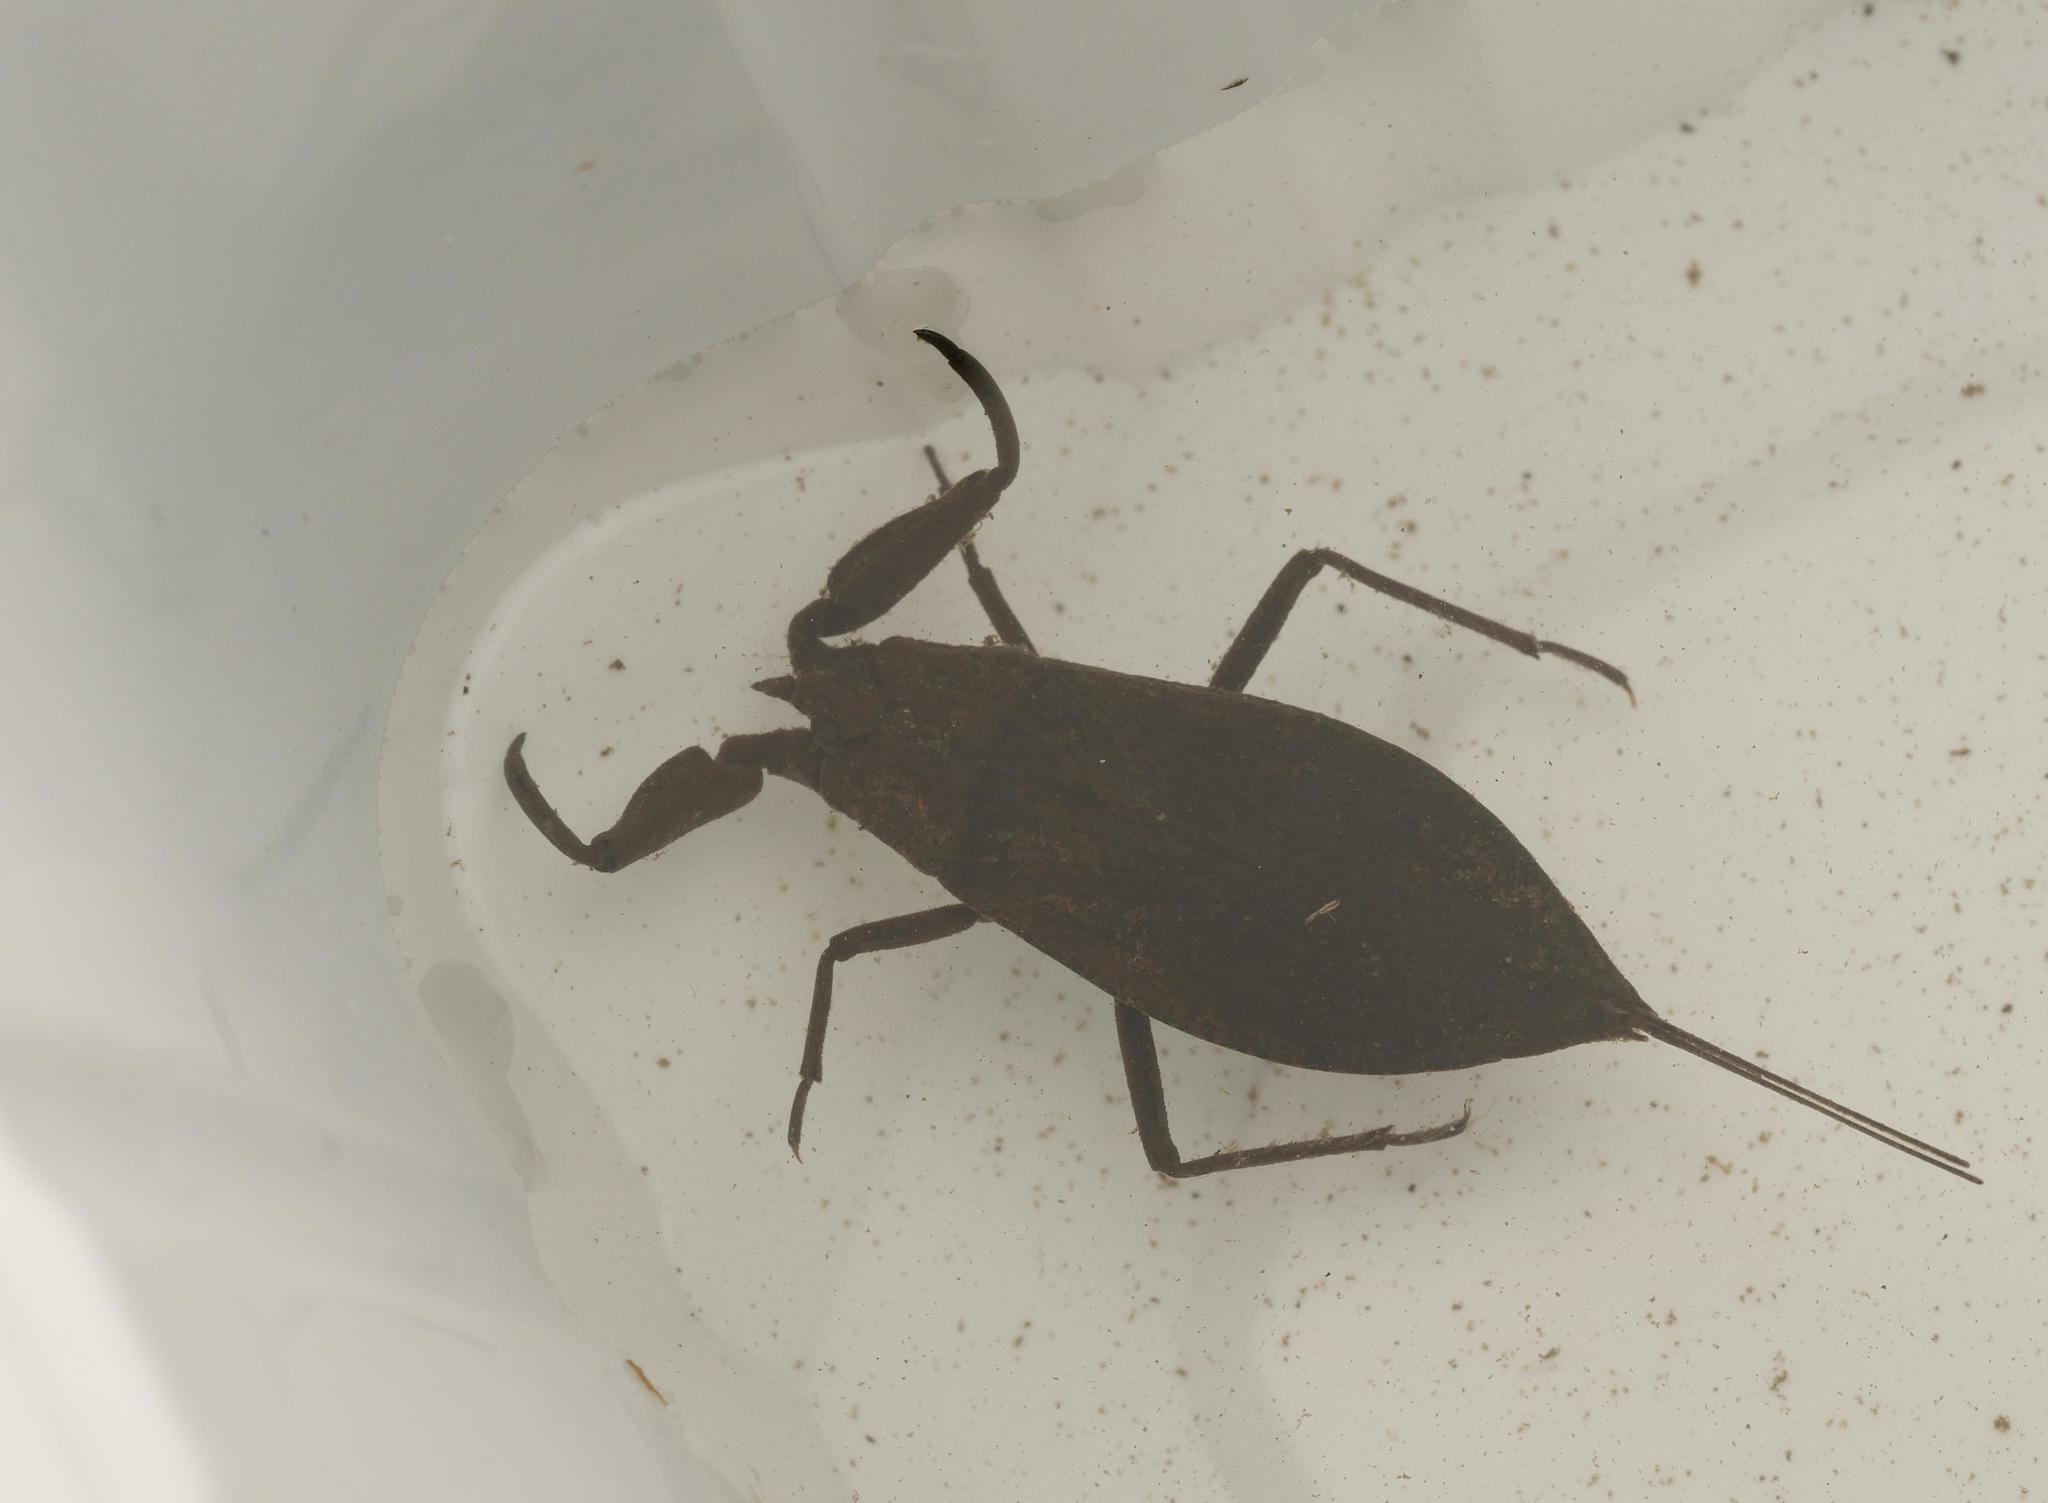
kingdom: Animalia
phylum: Arthropoda
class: Insecta
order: Hemiptera
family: Nepidae
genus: Nepa
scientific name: Nepa cinerea
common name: Water scorpion
